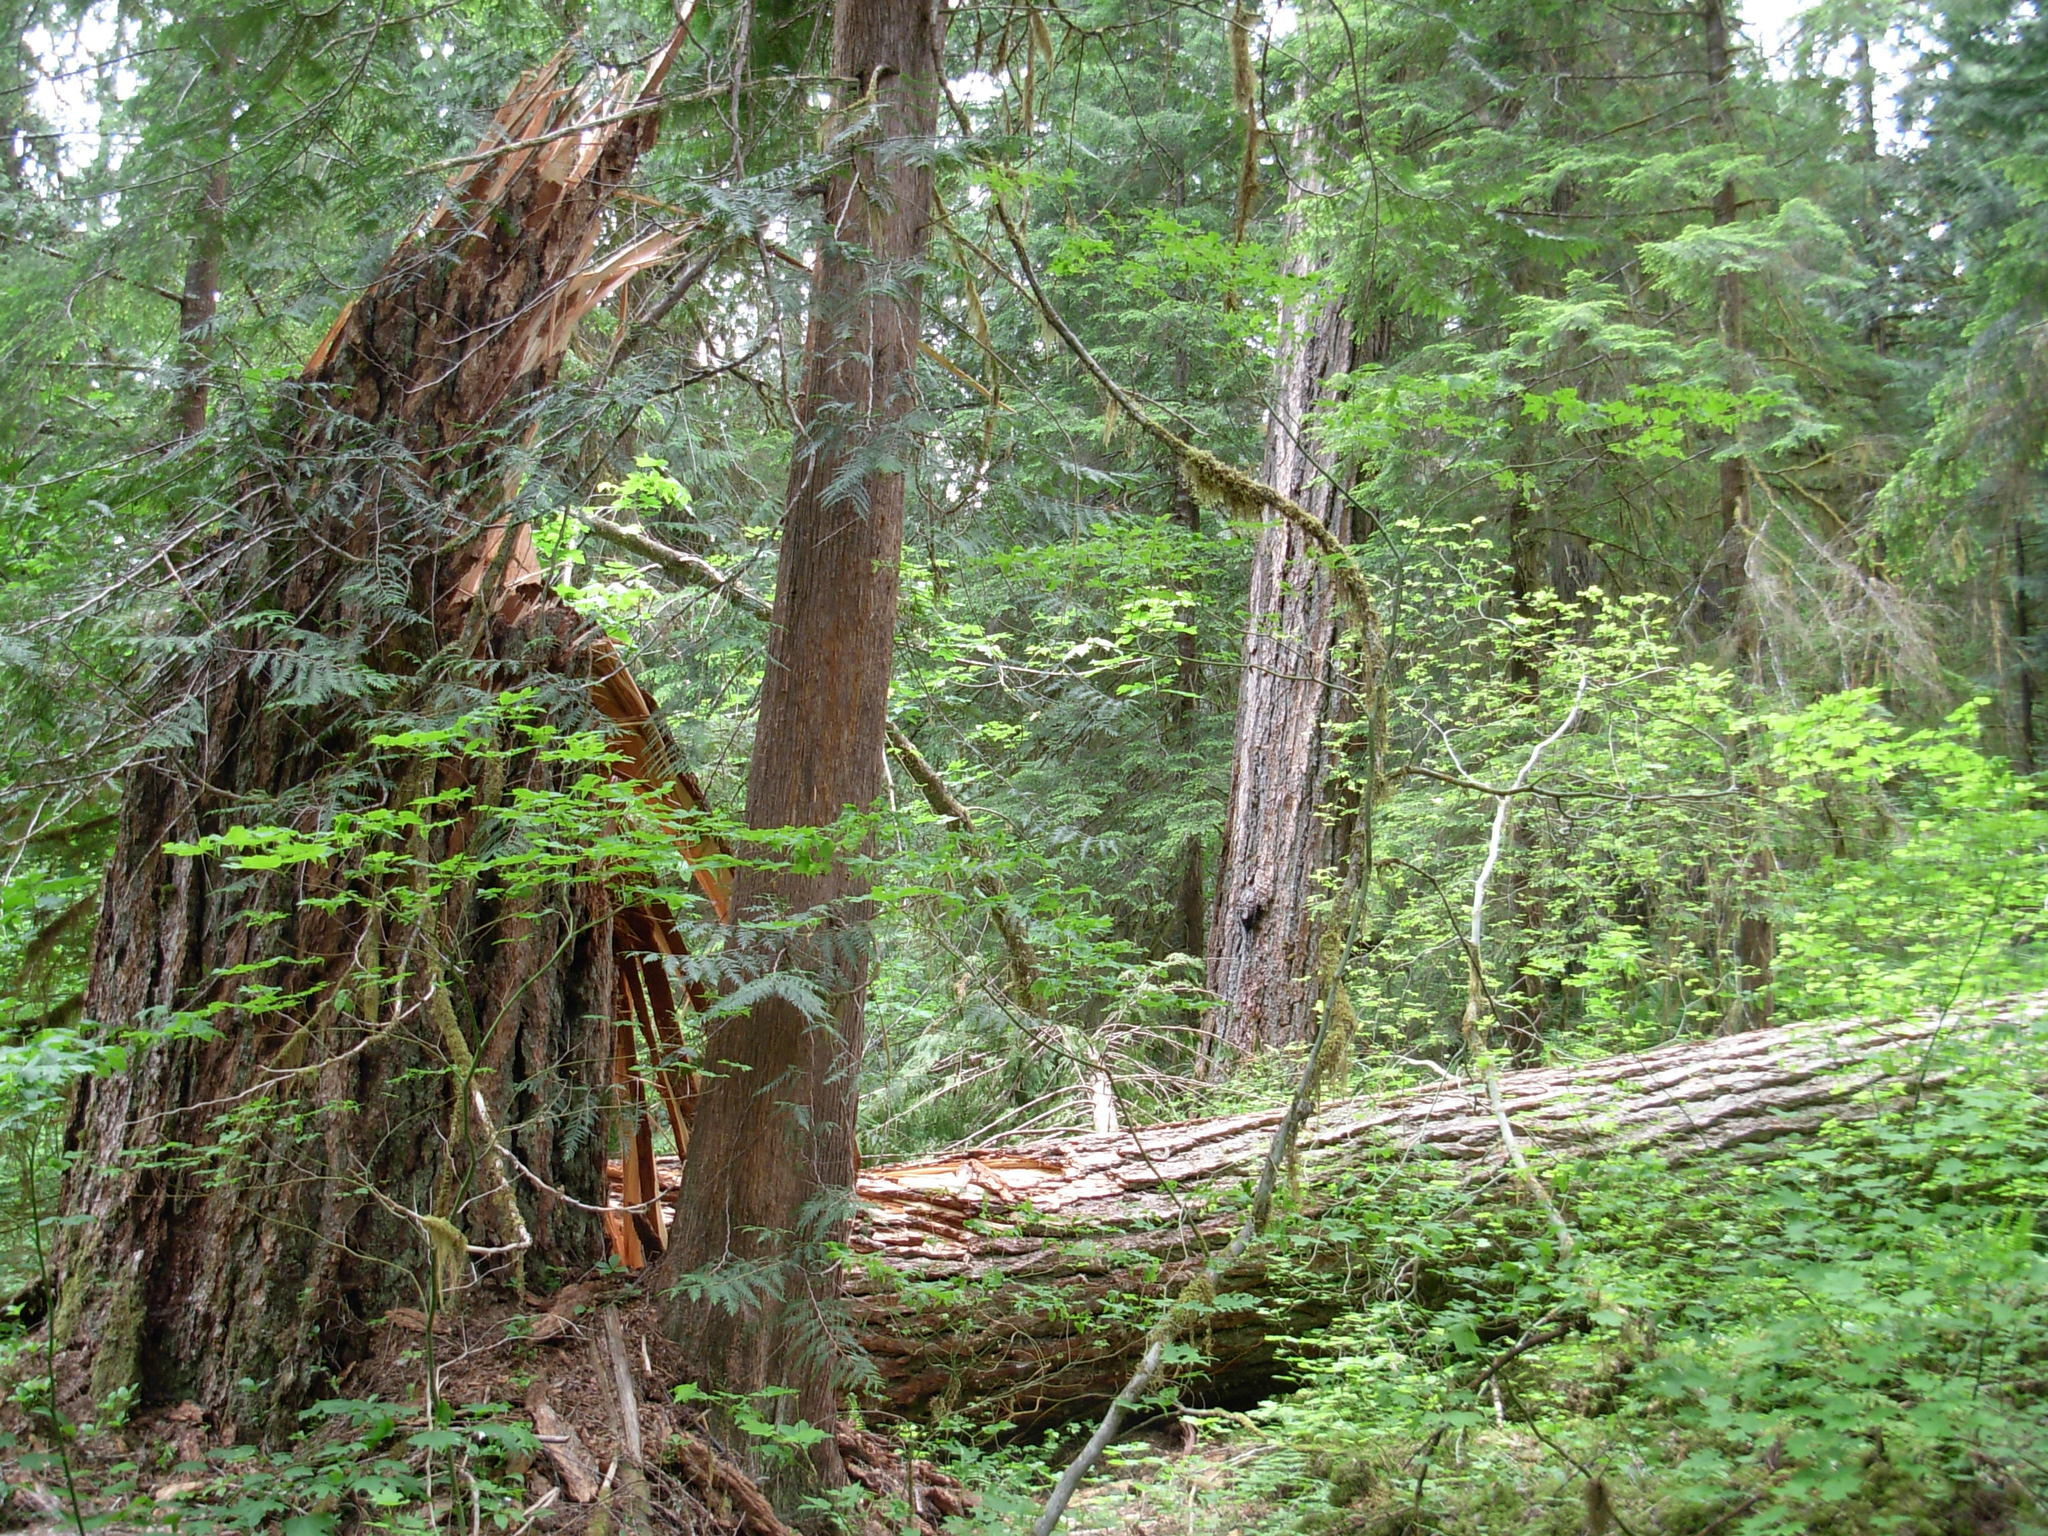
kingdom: Plantae
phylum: Tracheophyta
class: Pinopsida
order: Pinales
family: Pinaceae
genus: Pseudotsuga
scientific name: Pseudotsuga menziesii
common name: Douglas fir
